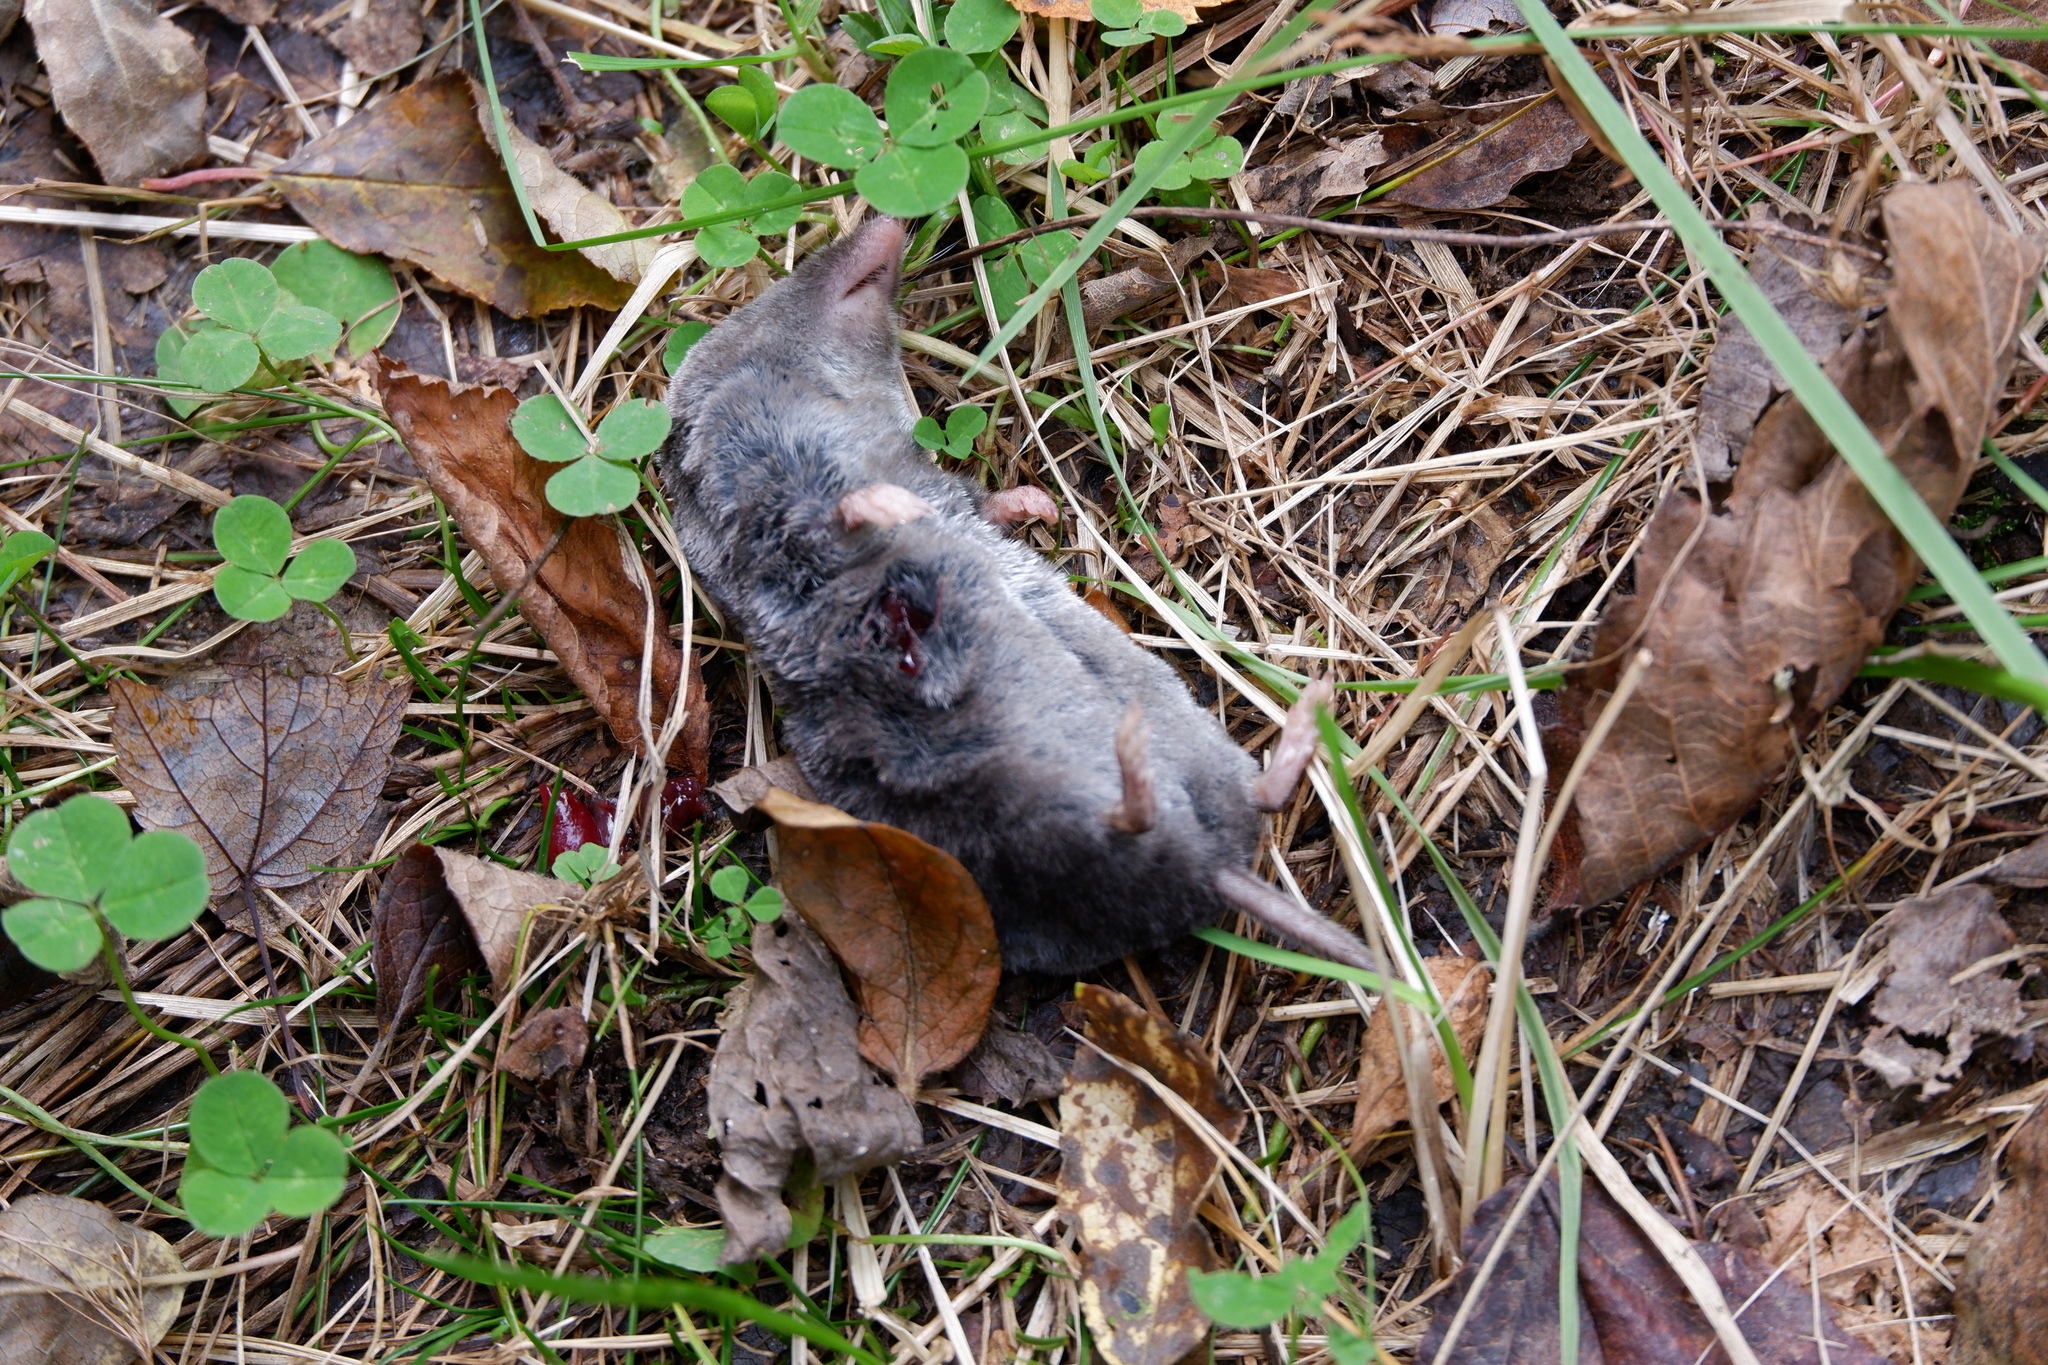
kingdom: Animalia
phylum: Chordata
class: Mammalia
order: Soricomorpha
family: Soricidae
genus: Blarina
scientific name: Blarina brevicauda
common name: Northern short-tailed shrew
